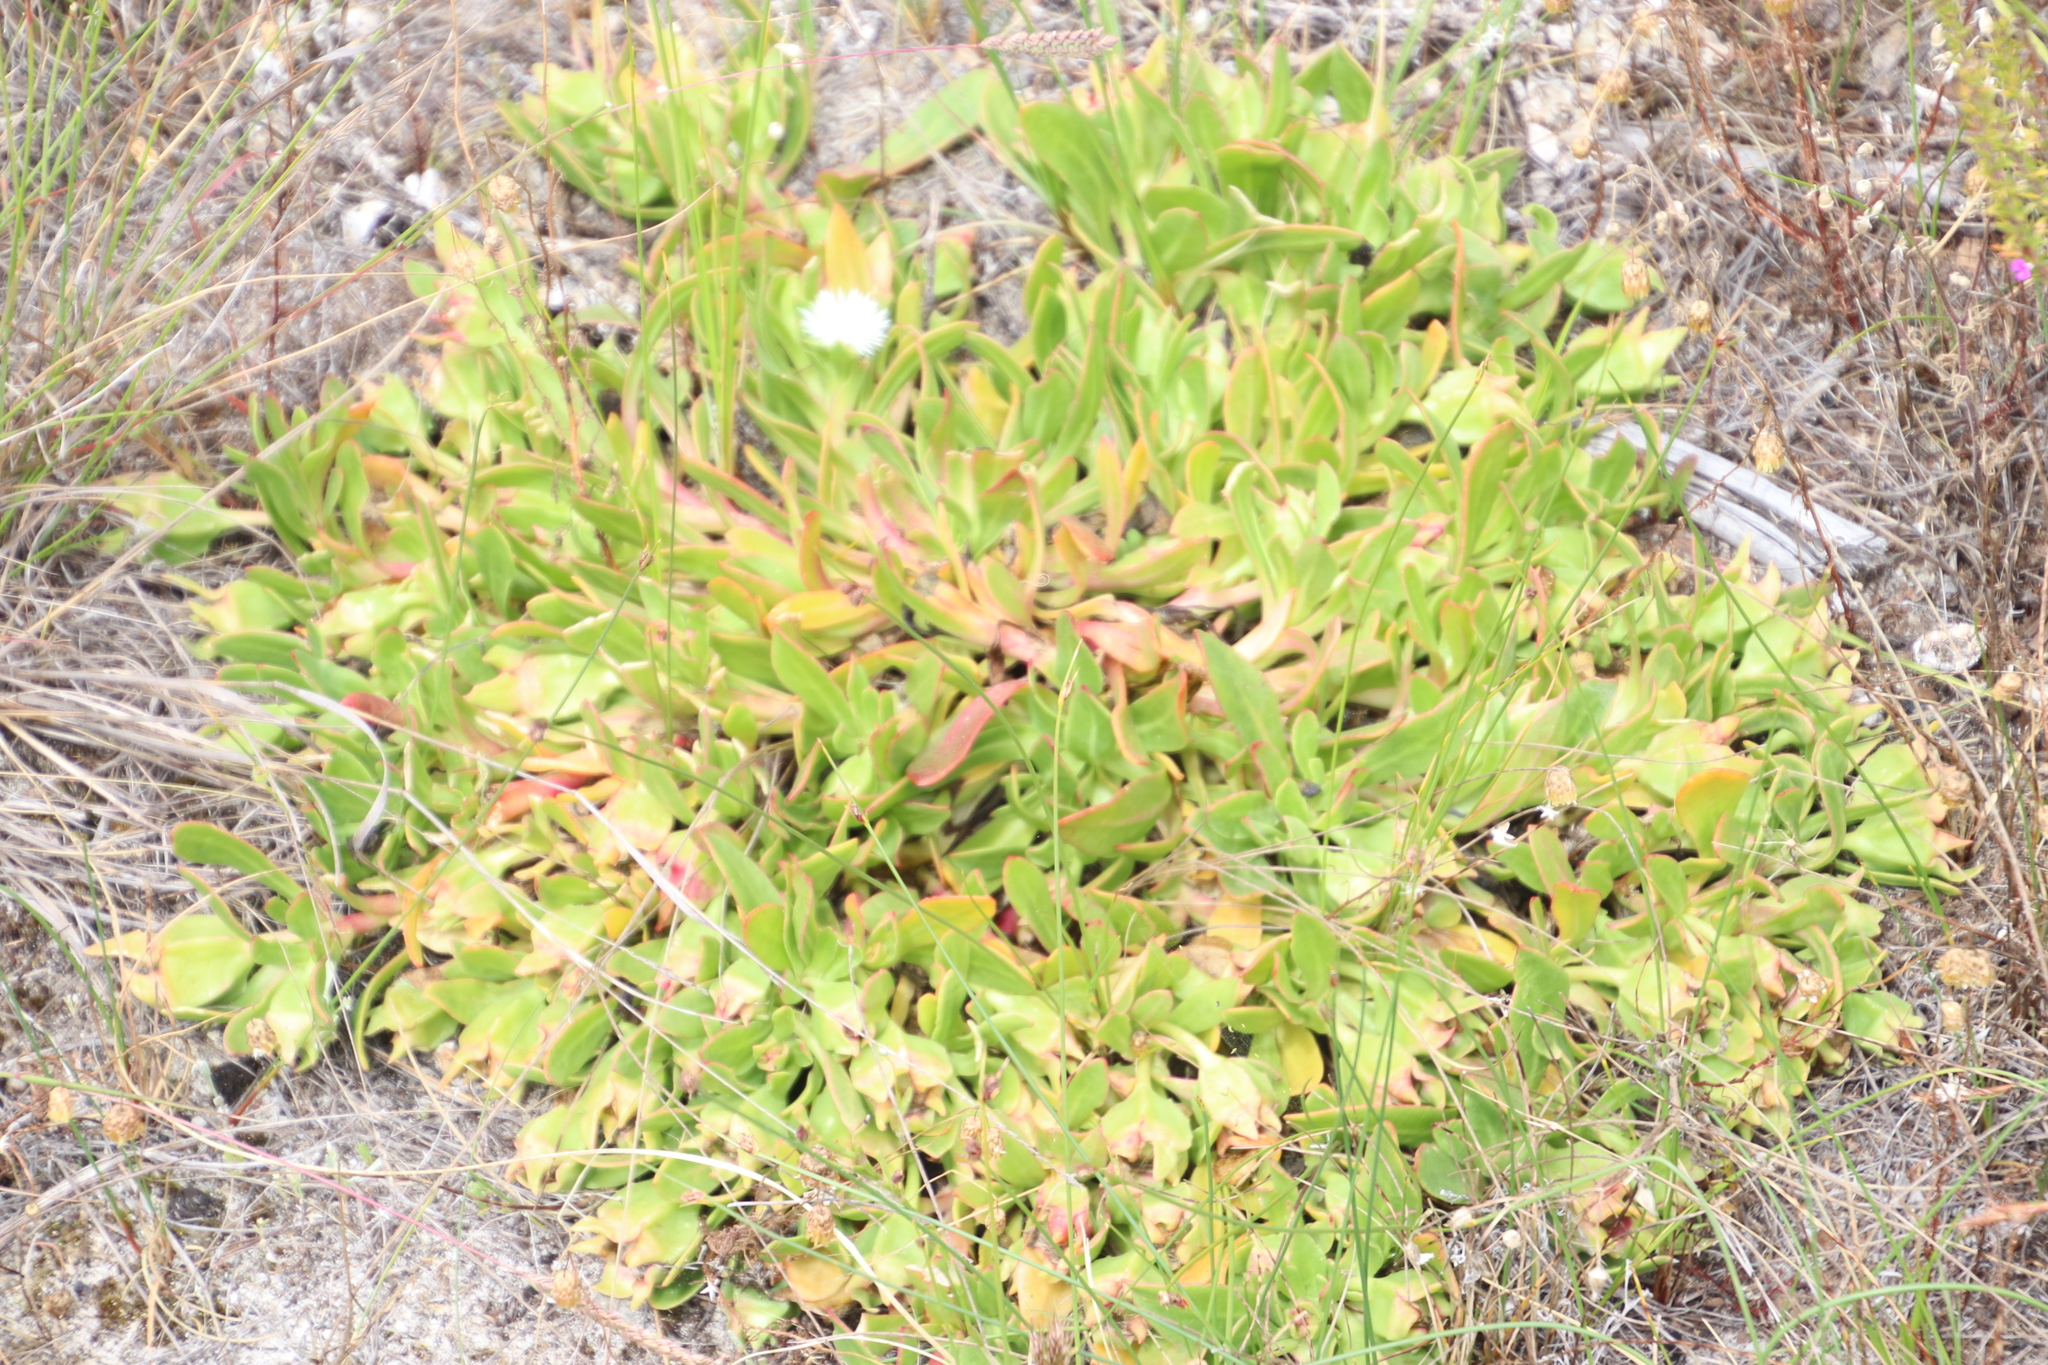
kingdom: Plantae
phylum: Tracheophyta
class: Magnoliopsida
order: Caryophyllales
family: Aizoaceae
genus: Skiatophytum
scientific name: Skiatophytum tripolium
